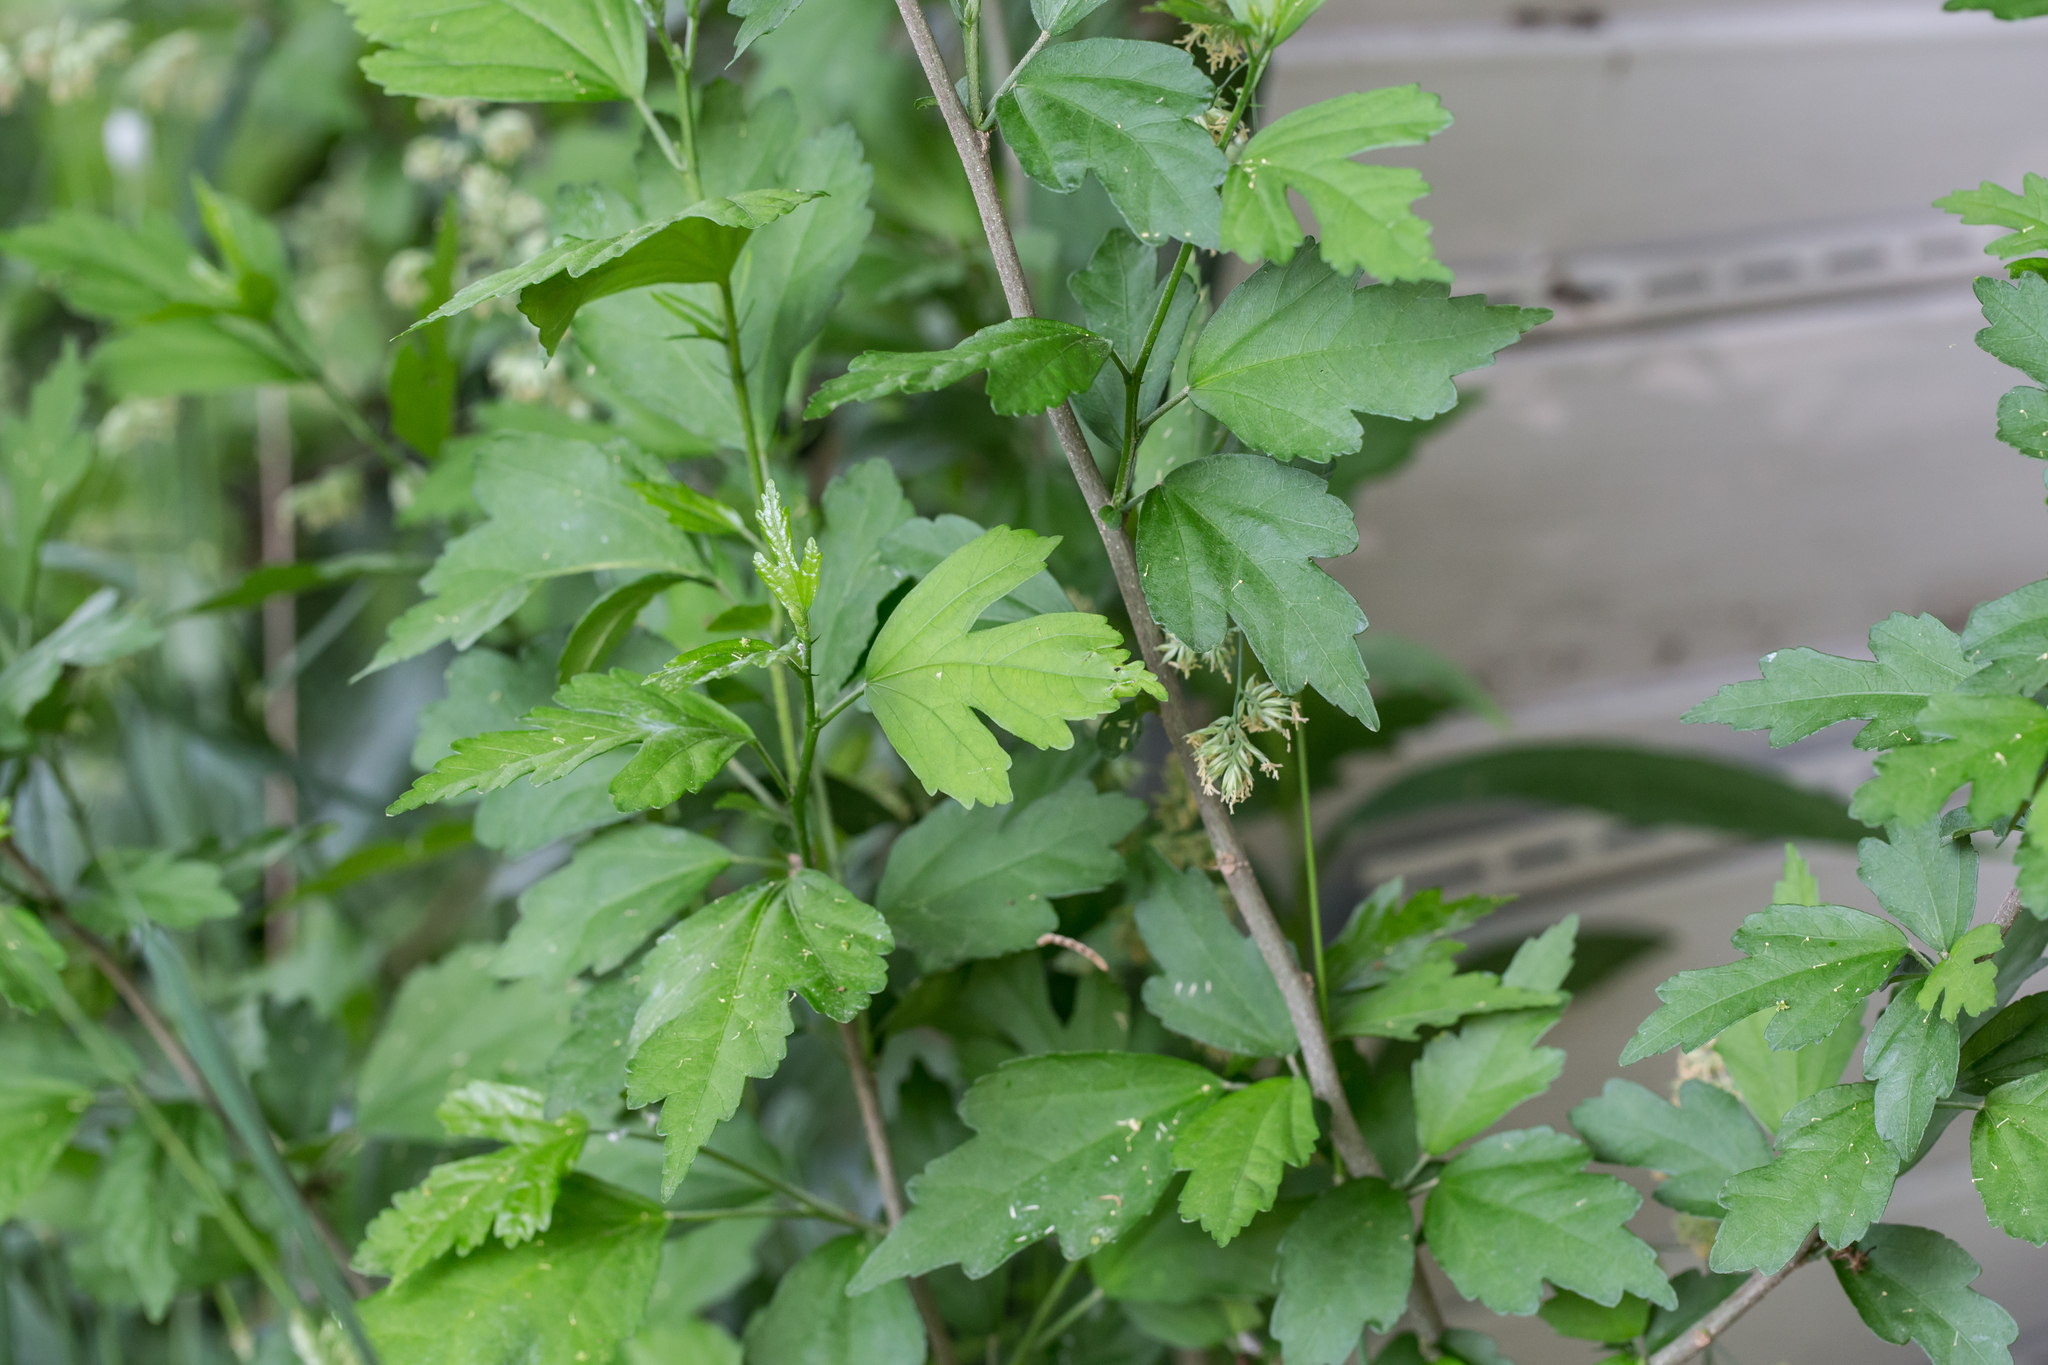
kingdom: Plantae
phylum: Tracheophyta
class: Magnoliopsida
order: Malvales
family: Malvaceae
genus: Hibiscus
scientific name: Hibiscus syriacus
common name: Syrian ketmia
